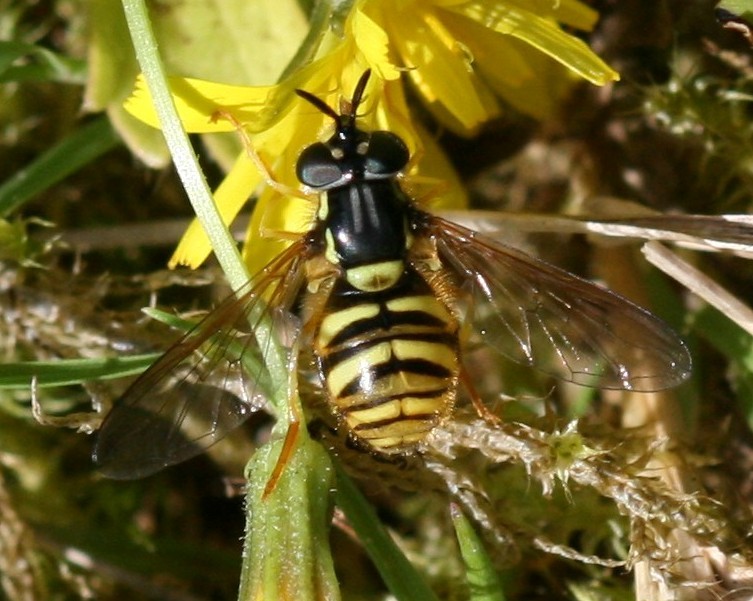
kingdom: Animalia
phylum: Arthropoda
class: Insecta
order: Diptera
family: Syrphidae
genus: Chrysotoxum
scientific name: Chrysotoxum arcuatum
